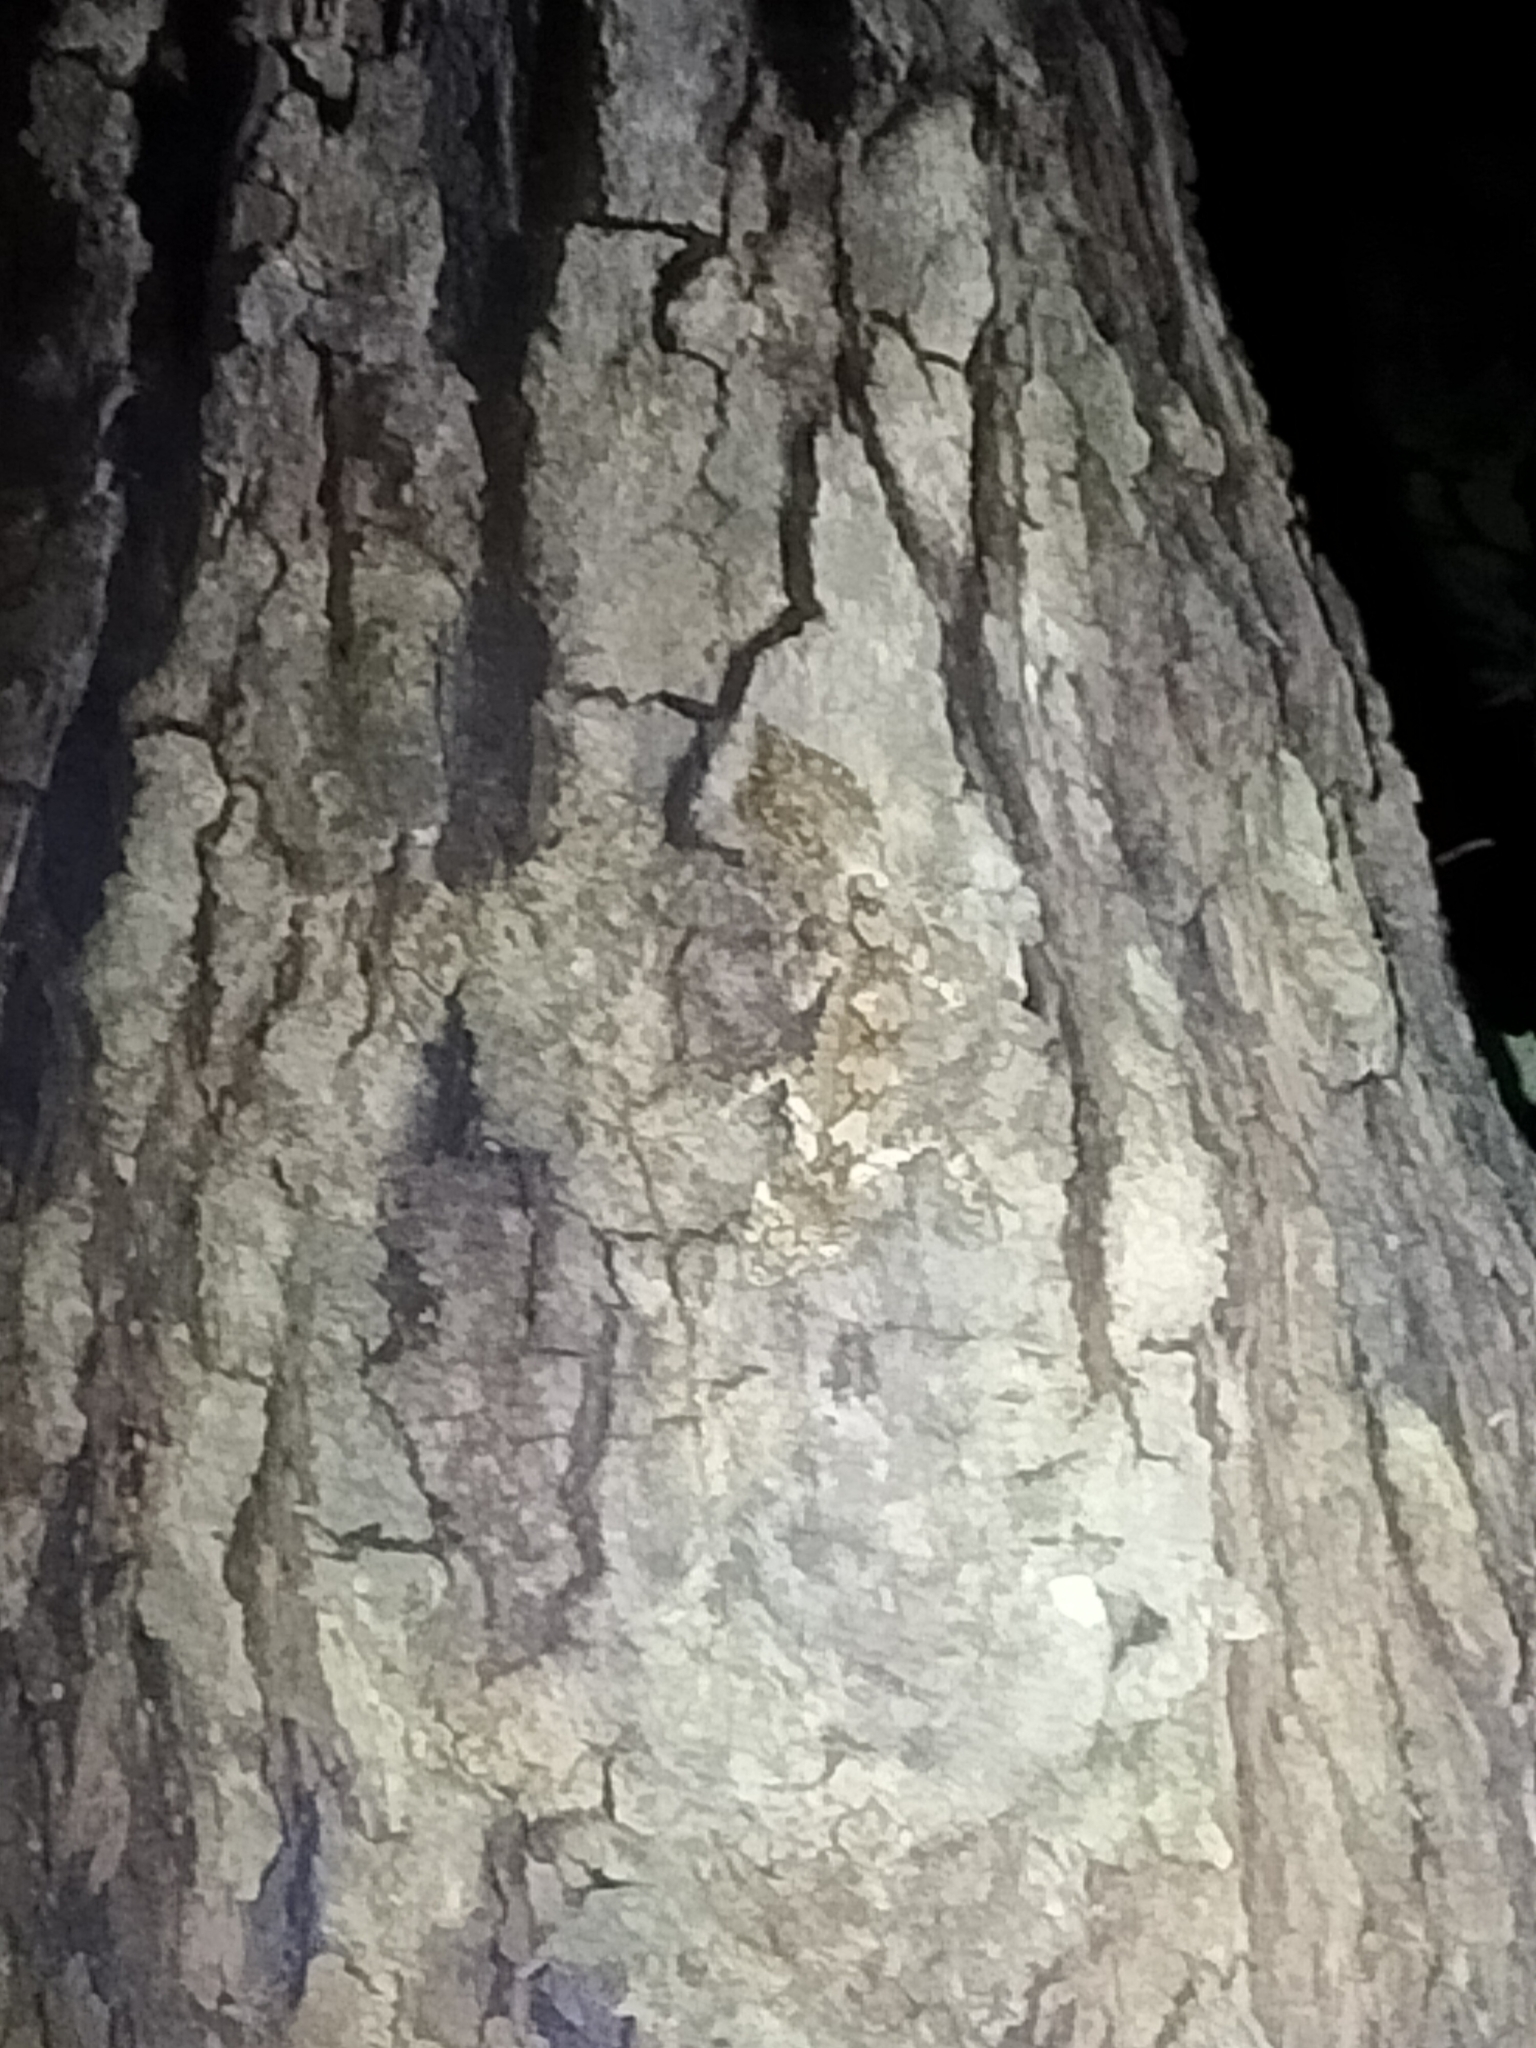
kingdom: Animalia
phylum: Chordata
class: Squamata
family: Carphodactylidae
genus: Saltuarius
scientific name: Saltuarius cornutus
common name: Leaf-tailed gecko
